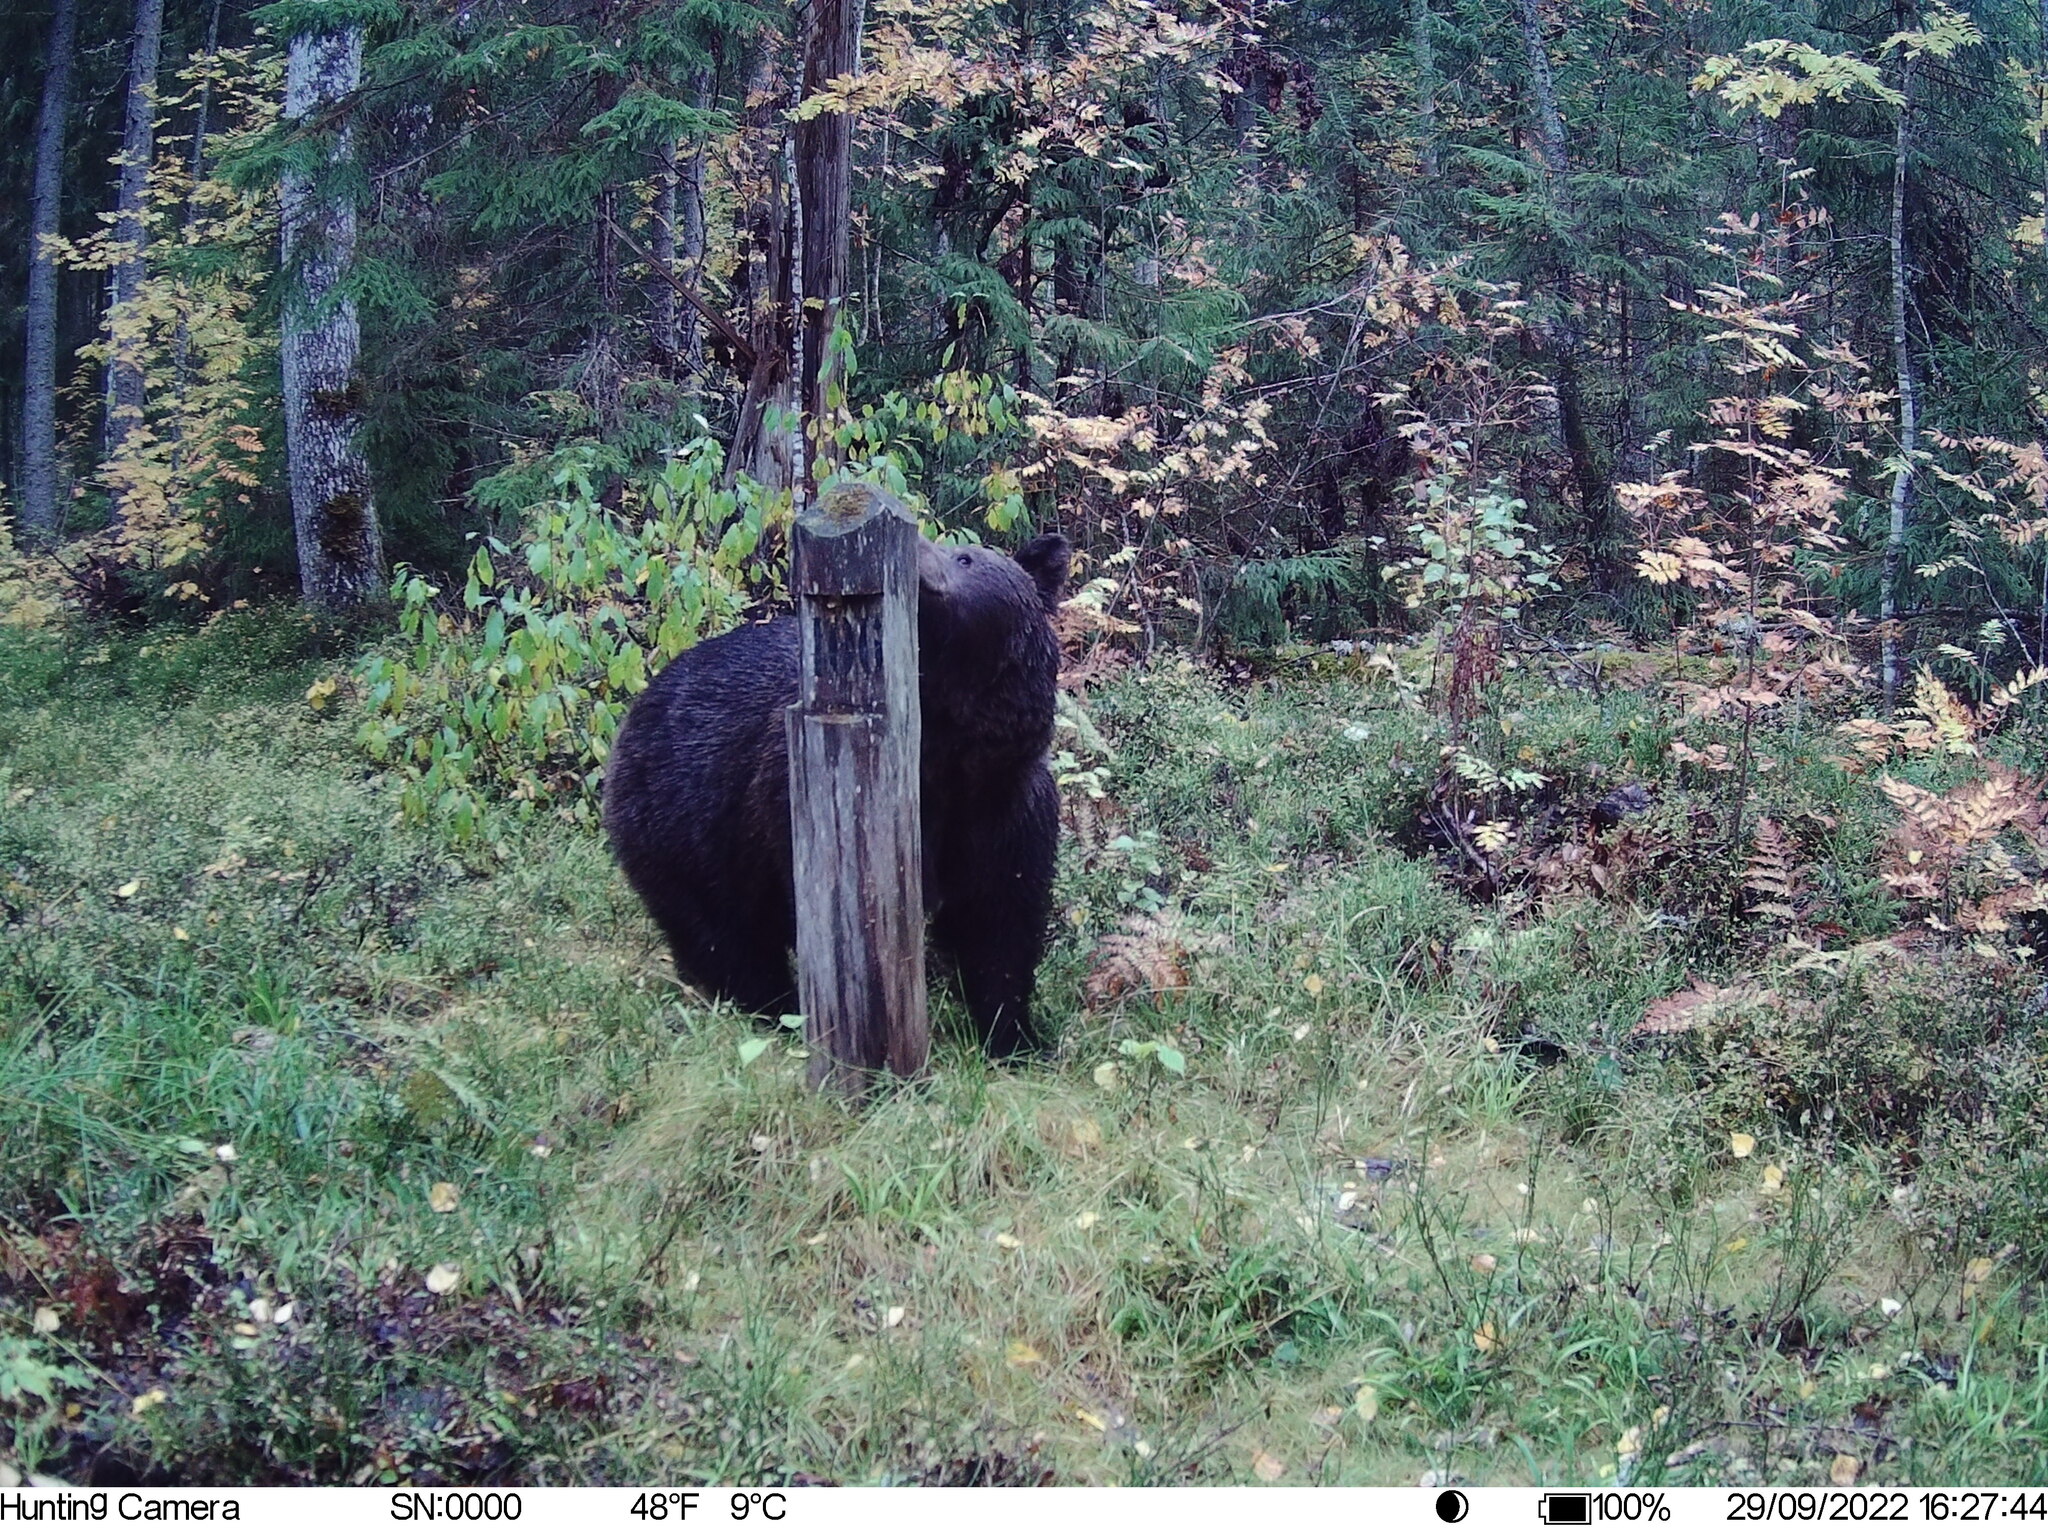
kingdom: Animalia
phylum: Chordata
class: Mammalia
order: Carnivora
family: Ursidae
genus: Ursus
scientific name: Ursus arctos
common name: Brown bear
